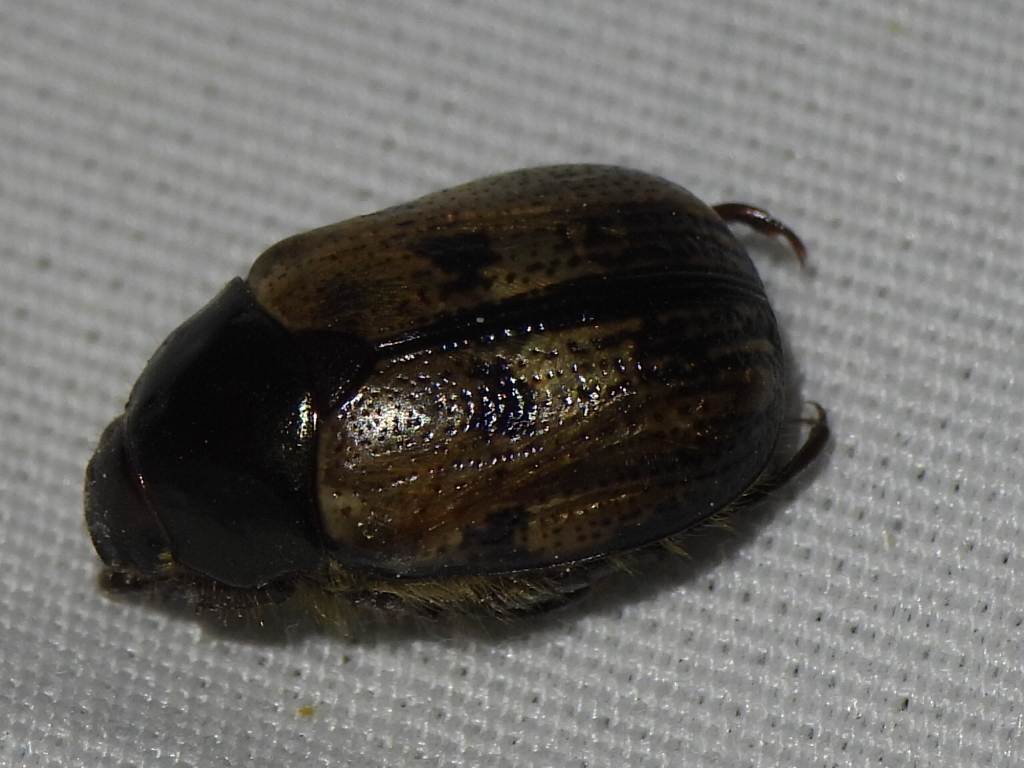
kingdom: Animalia
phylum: Arthropoda
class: Insecta
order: Coleoptera
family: Scarabaeidae
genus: Paranomala
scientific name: Paranomala binotata
